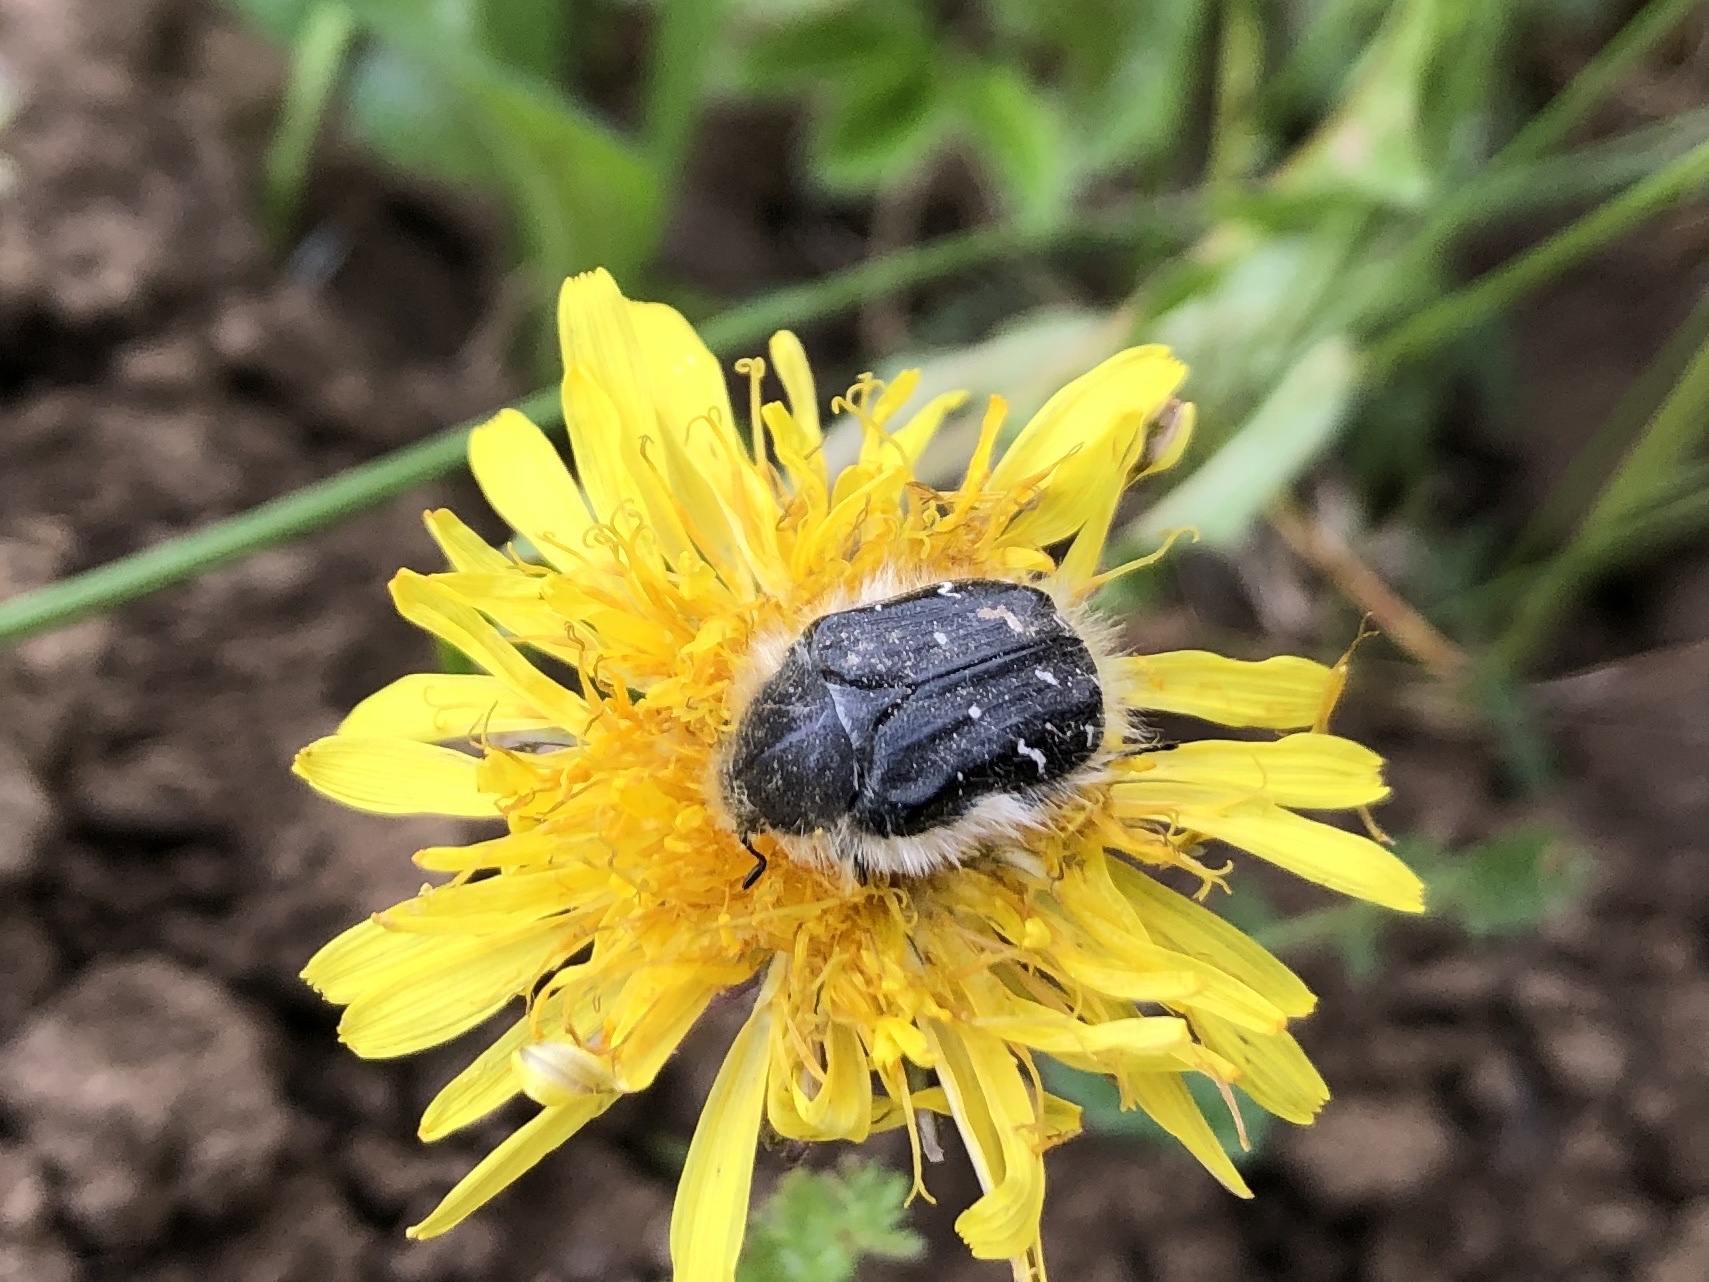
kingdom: Animalia
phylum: Arthropoda
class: Insecta
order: Coleoptera
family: Scarabaeidae
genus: Tropinota
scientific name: Tropinota hirta
